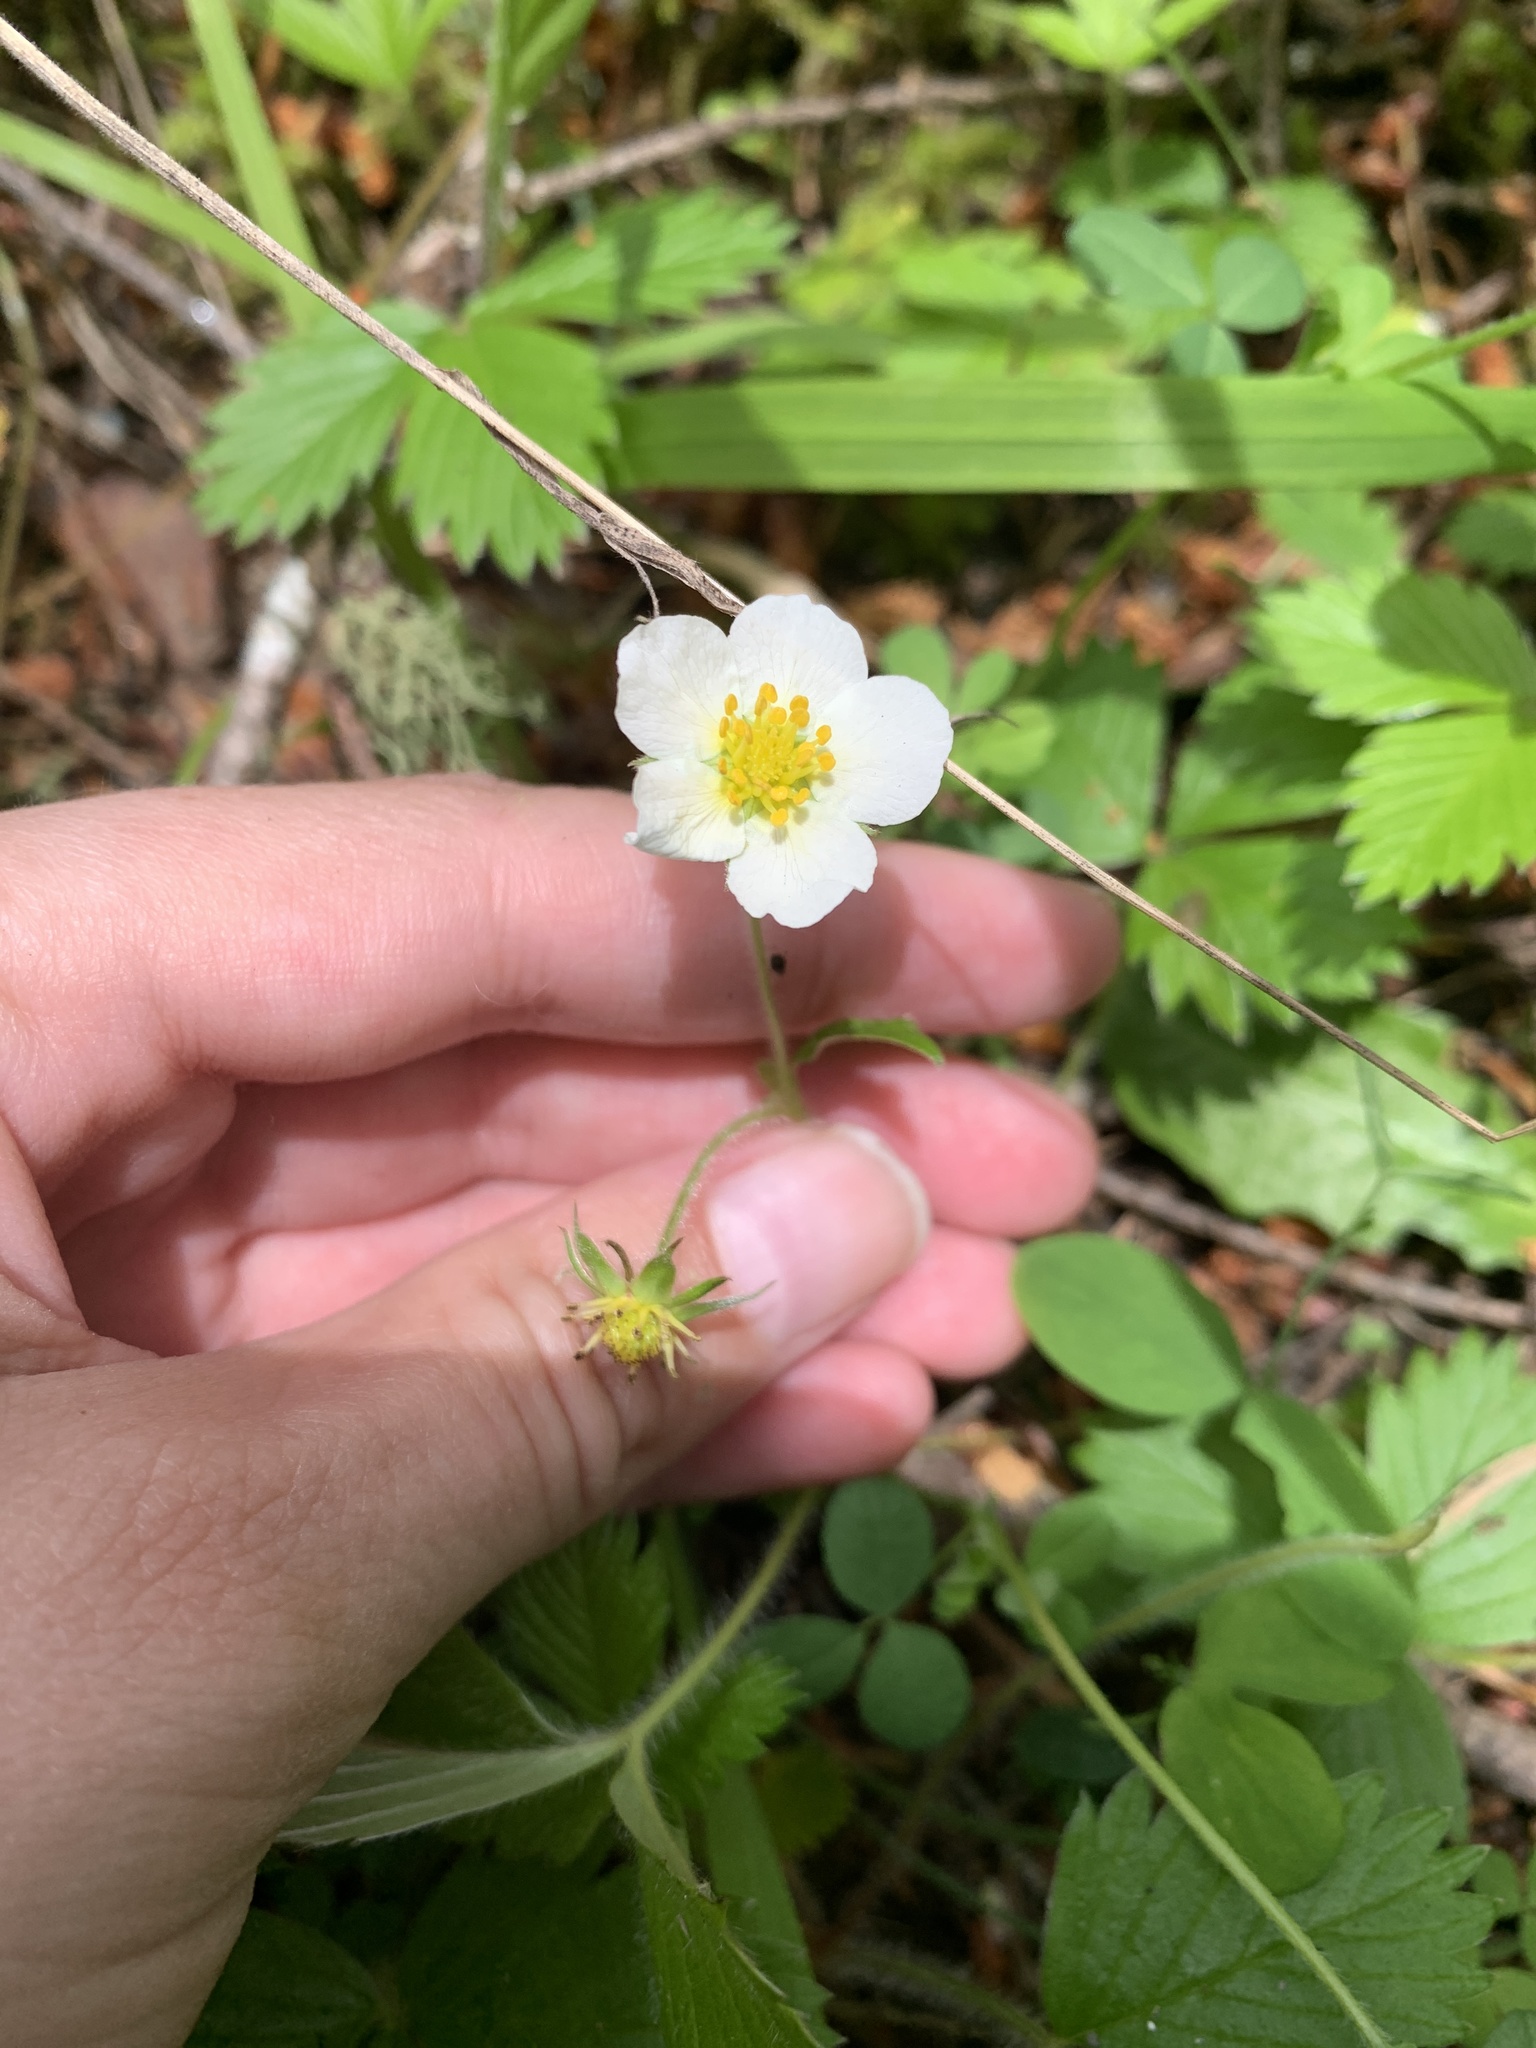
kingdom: Plantae
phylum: Tracheophyta
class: Magnoliopsida
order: Rosales
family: Rosaceae
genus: Fragaria
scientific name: Fragaria vesca
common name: Wild strawberry
